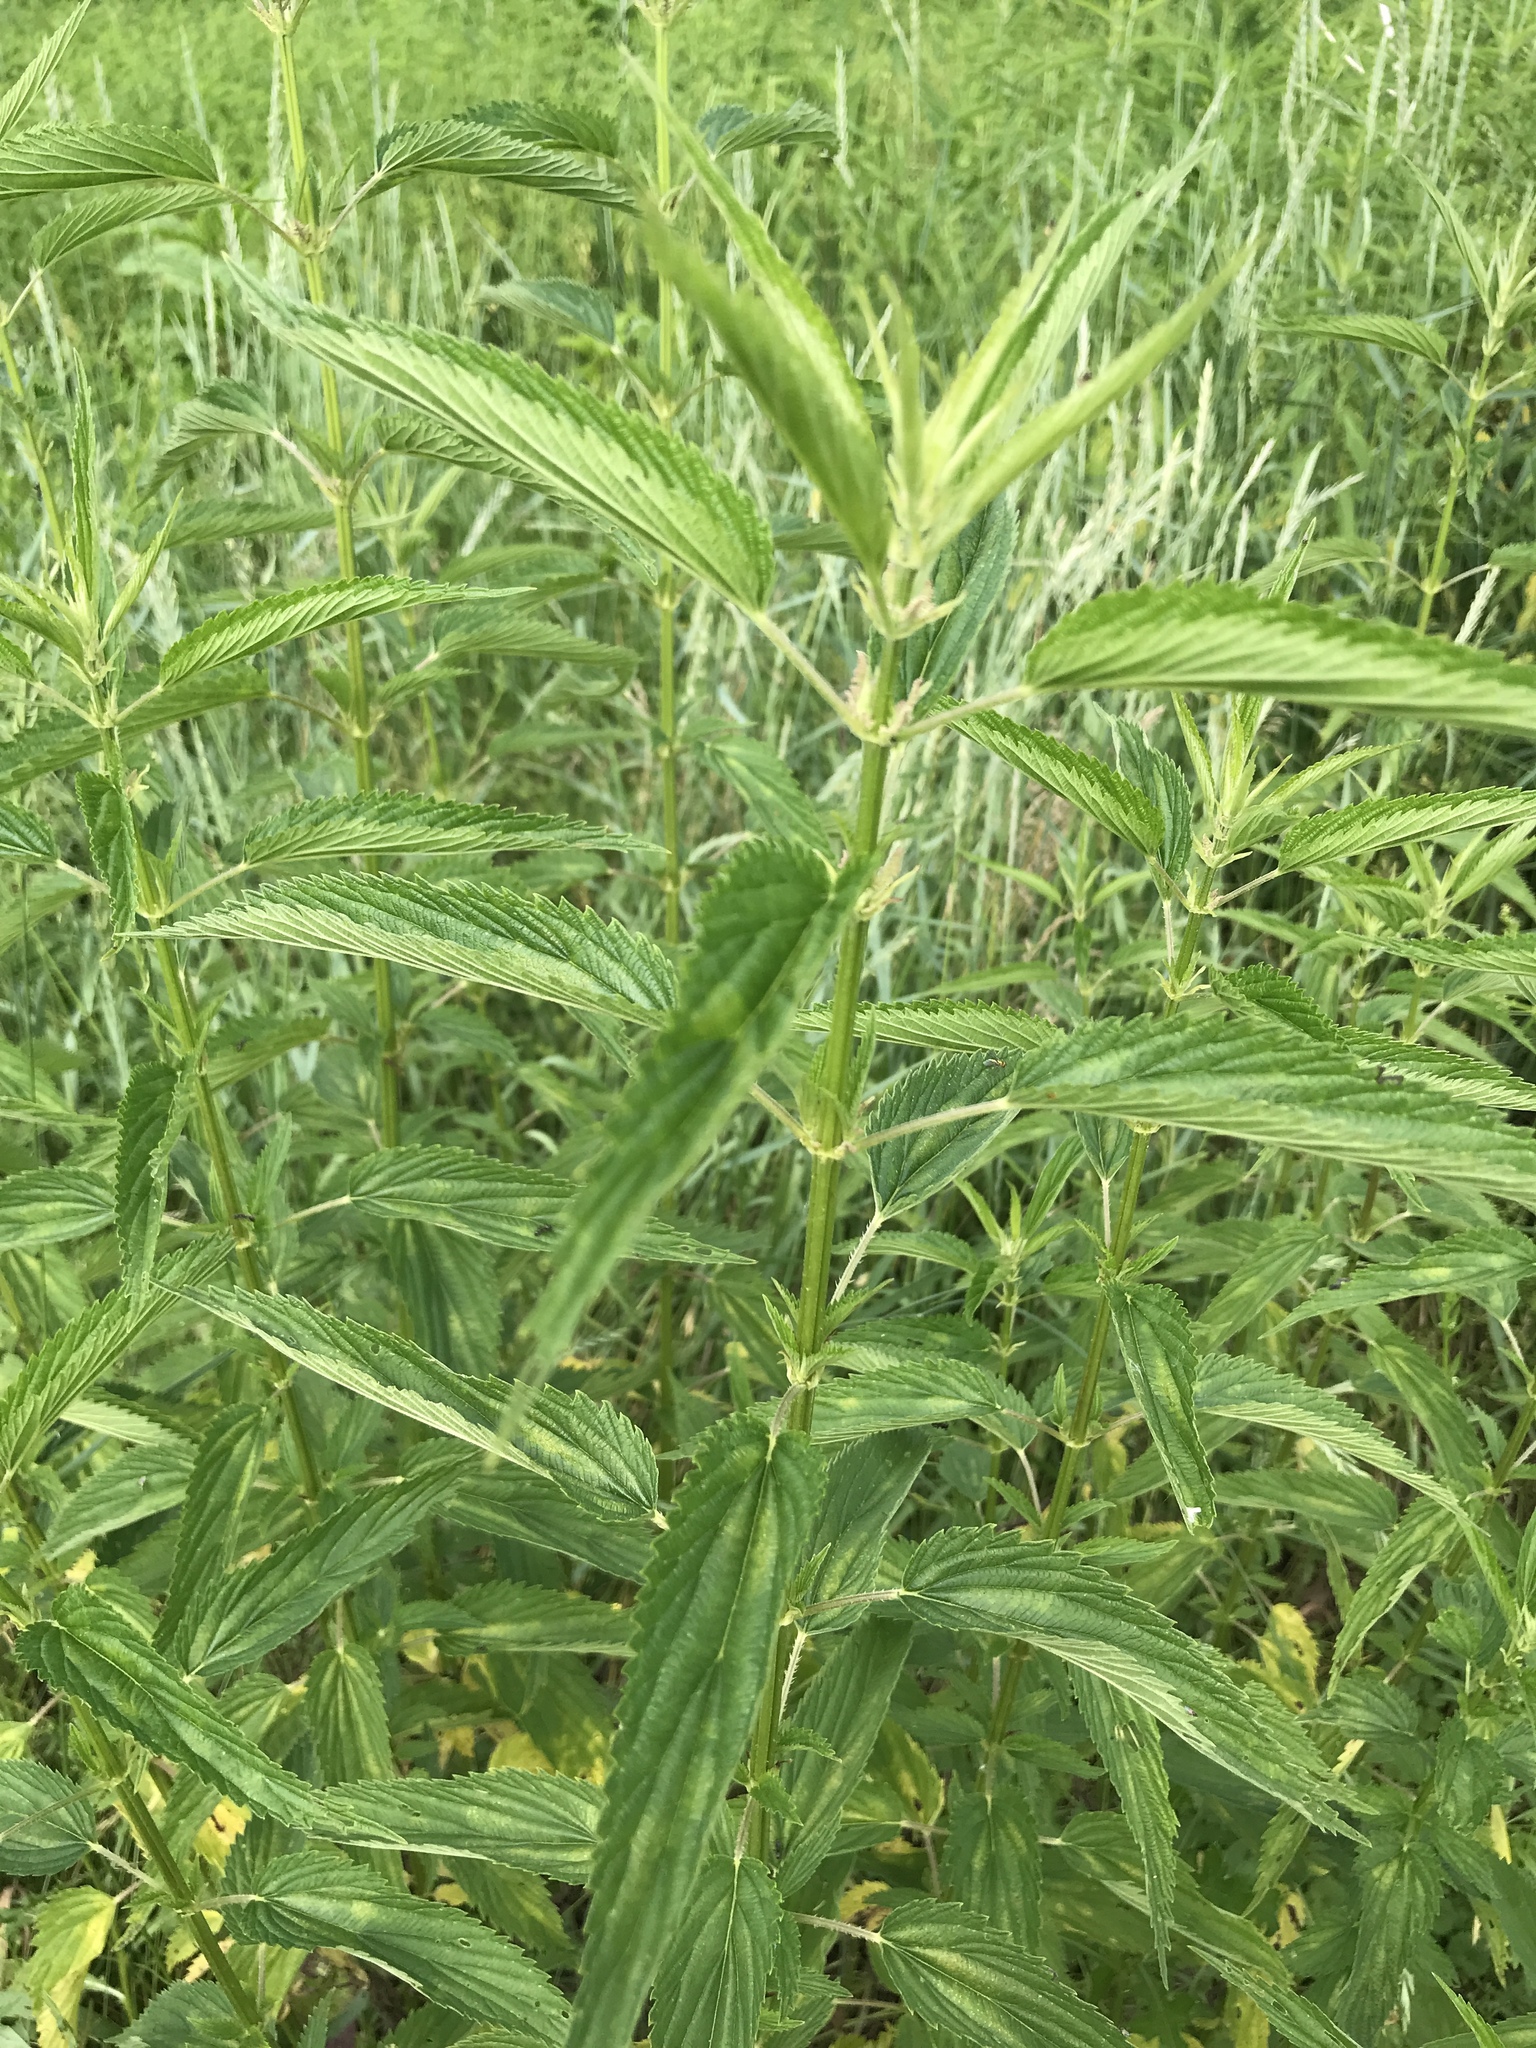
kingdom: Plantae
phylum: Tracheophyta
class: Magnoliopsida
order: Rosales
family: Urticaceae
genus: Urtica
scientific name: Urtica dioica
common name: Common nettle
